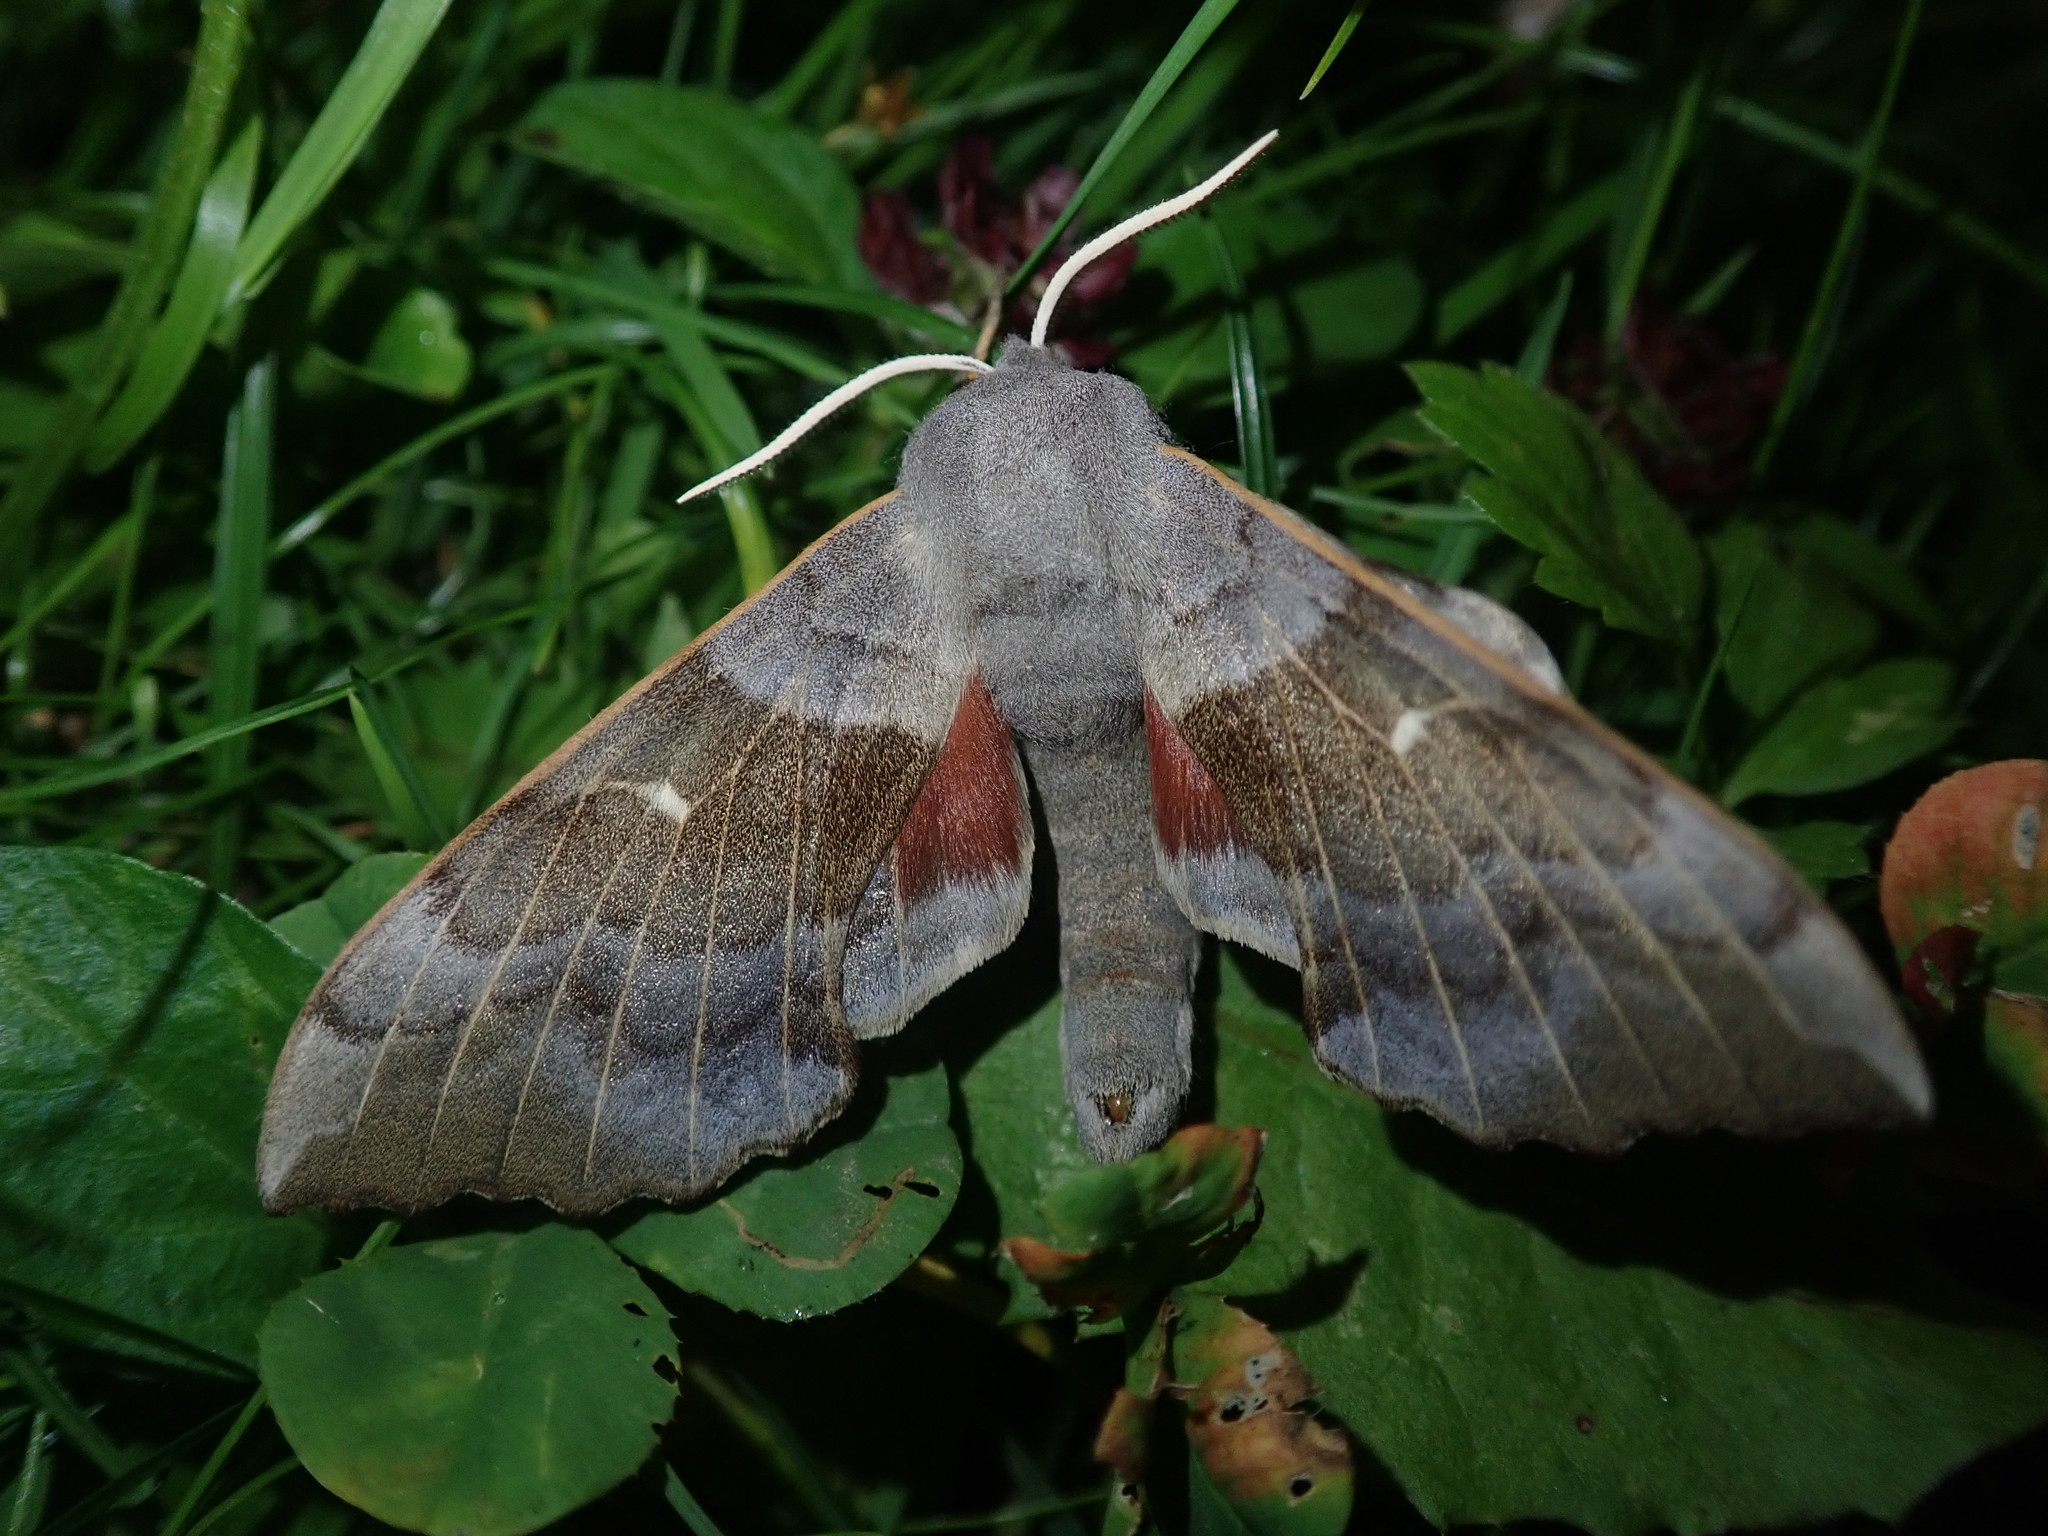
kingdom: Animalia
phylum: Arthropoda
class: Insecta
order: Lepidoptera
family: Sphingidae
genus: Laothoe
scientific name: Laothoe populi
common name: Poplar hawk-moth
